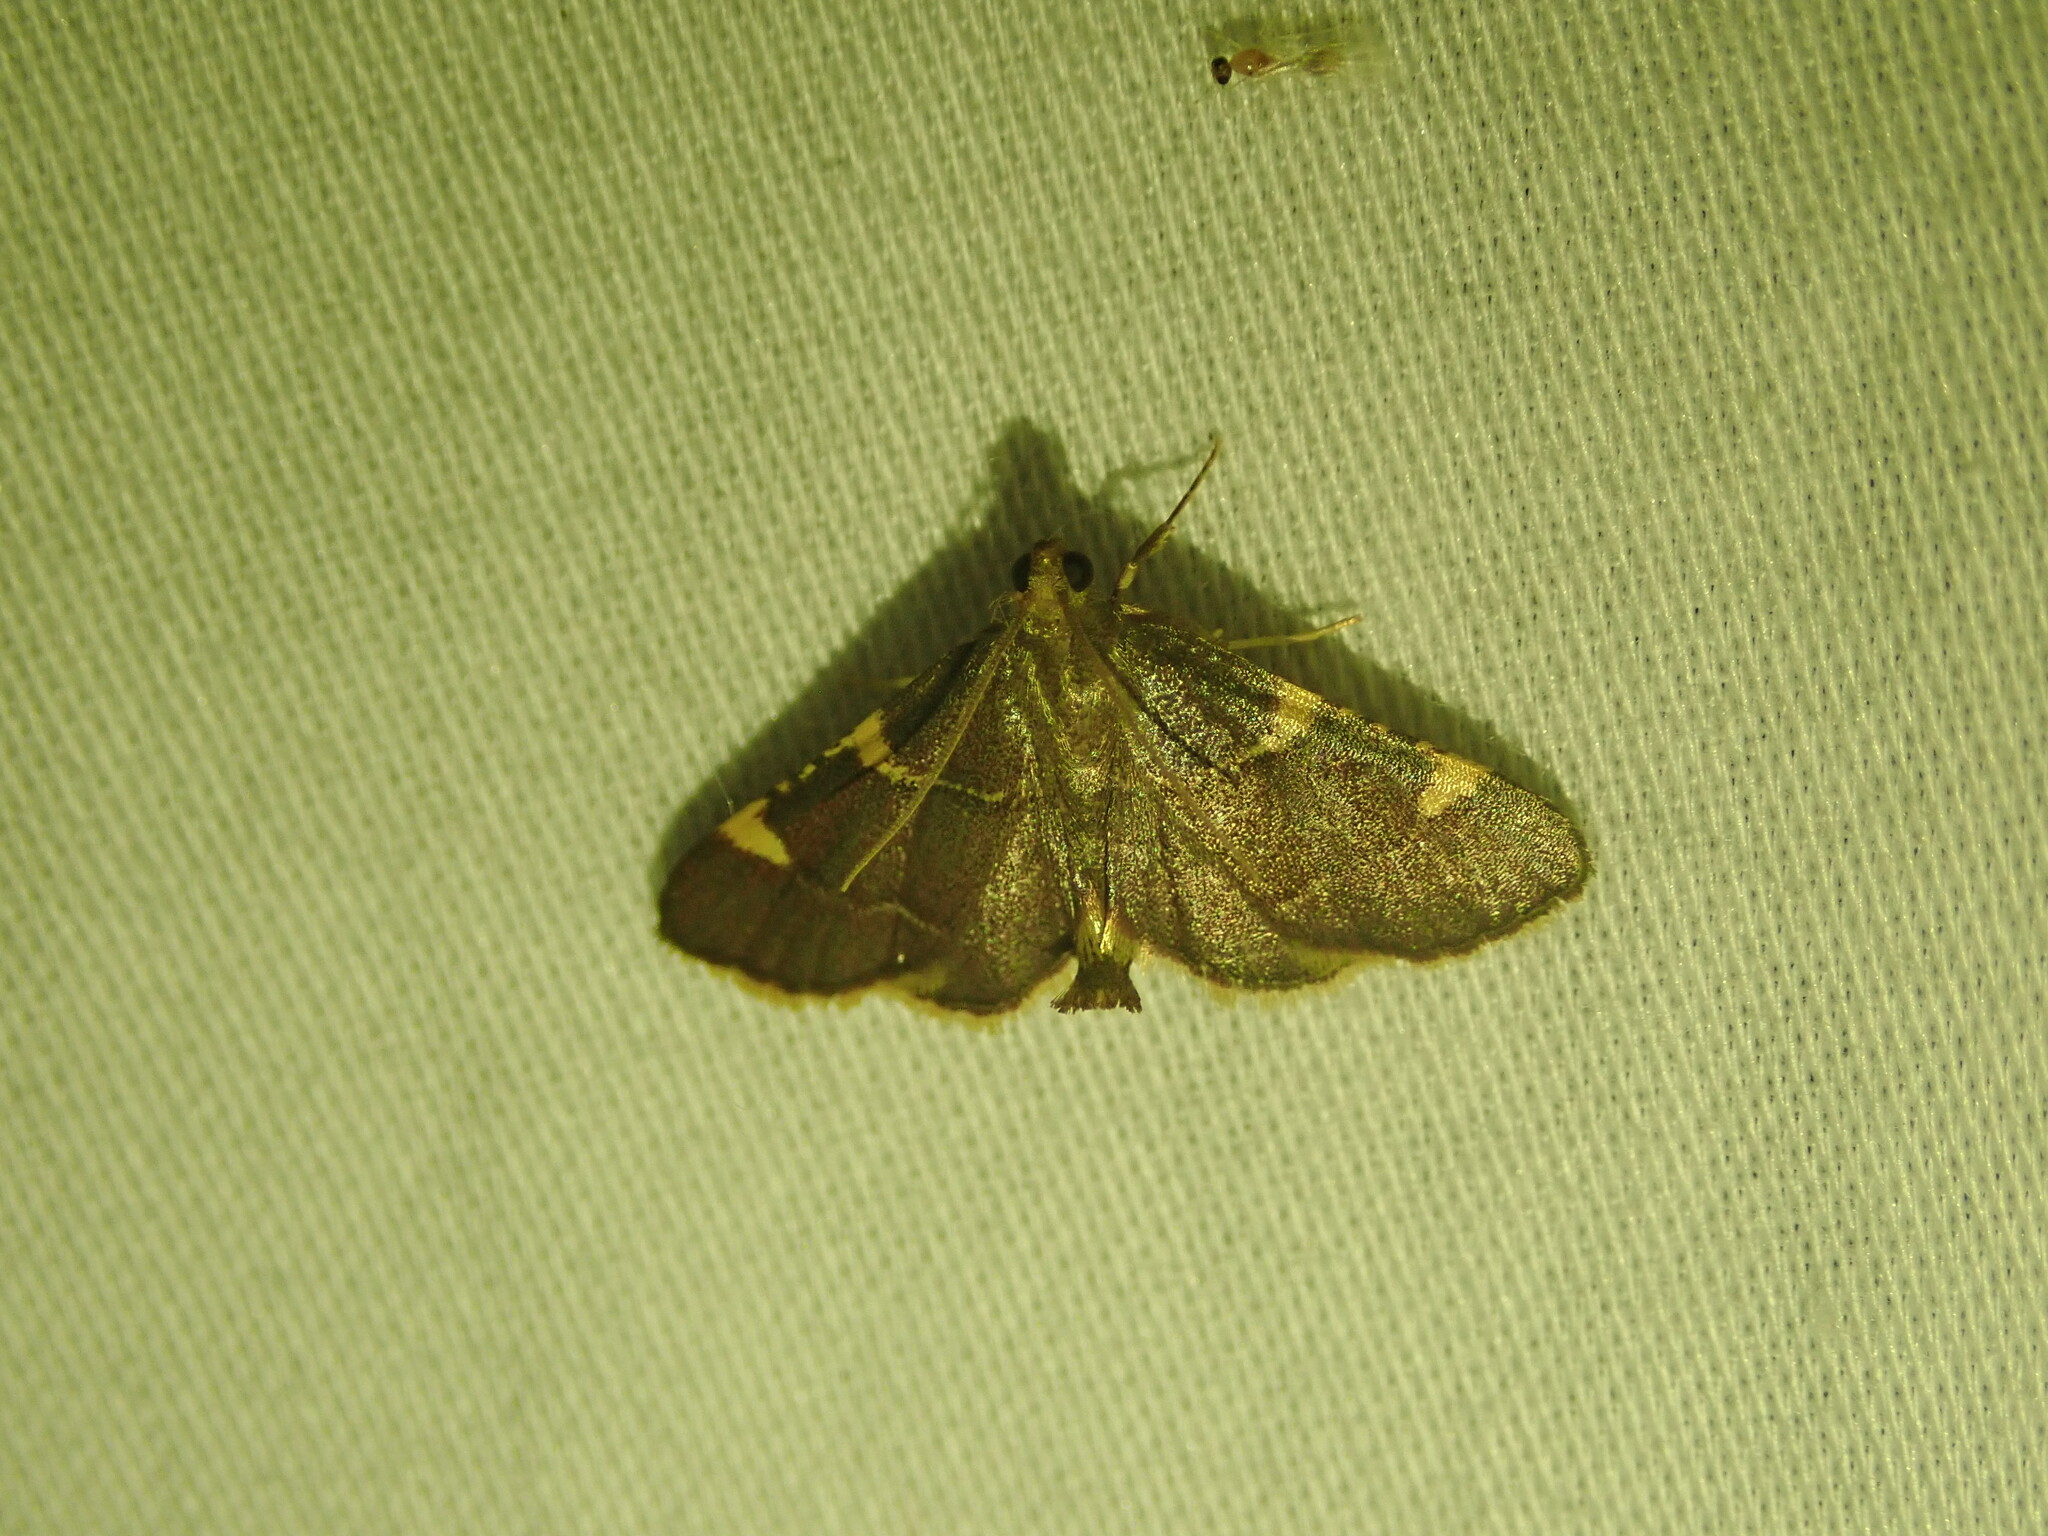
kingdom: Animalia
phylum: Arthropoda
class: Insecta
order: Lepidoptera
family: Pyralidae
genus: Hypsopygia
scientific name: Hypsopygia olinalis
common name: Yellow-fringed dolichomia moth
